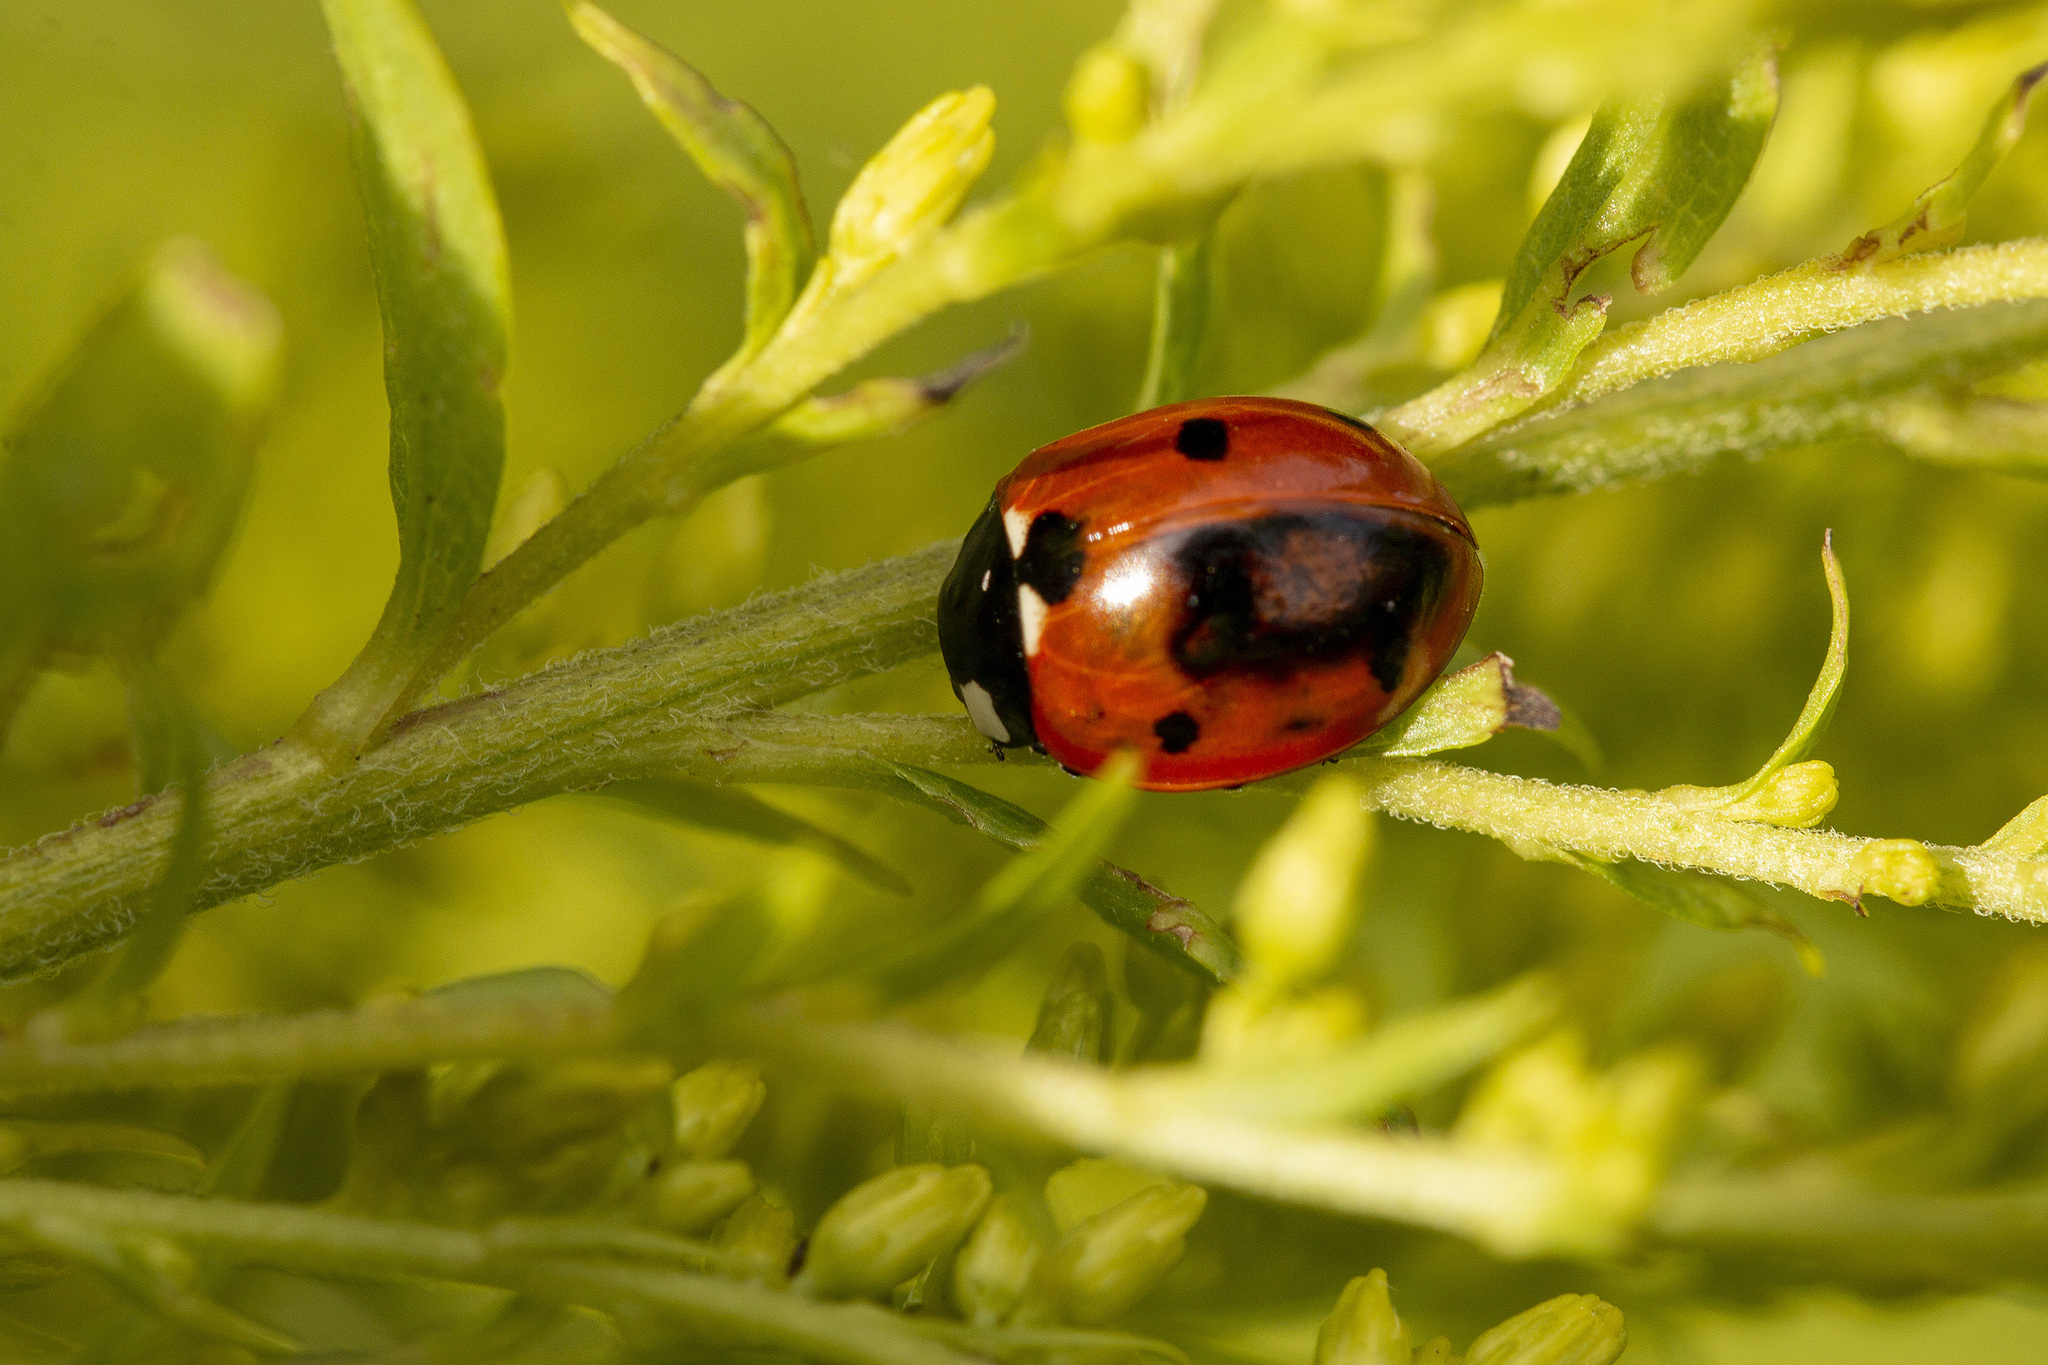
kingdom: Animalia
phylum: Arthropoda
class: Insecta
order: Coleoptera
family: Coccinellidae
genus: Coccinella
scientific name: Coccinella septempunctata
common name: Sevenspotted lady beetle
